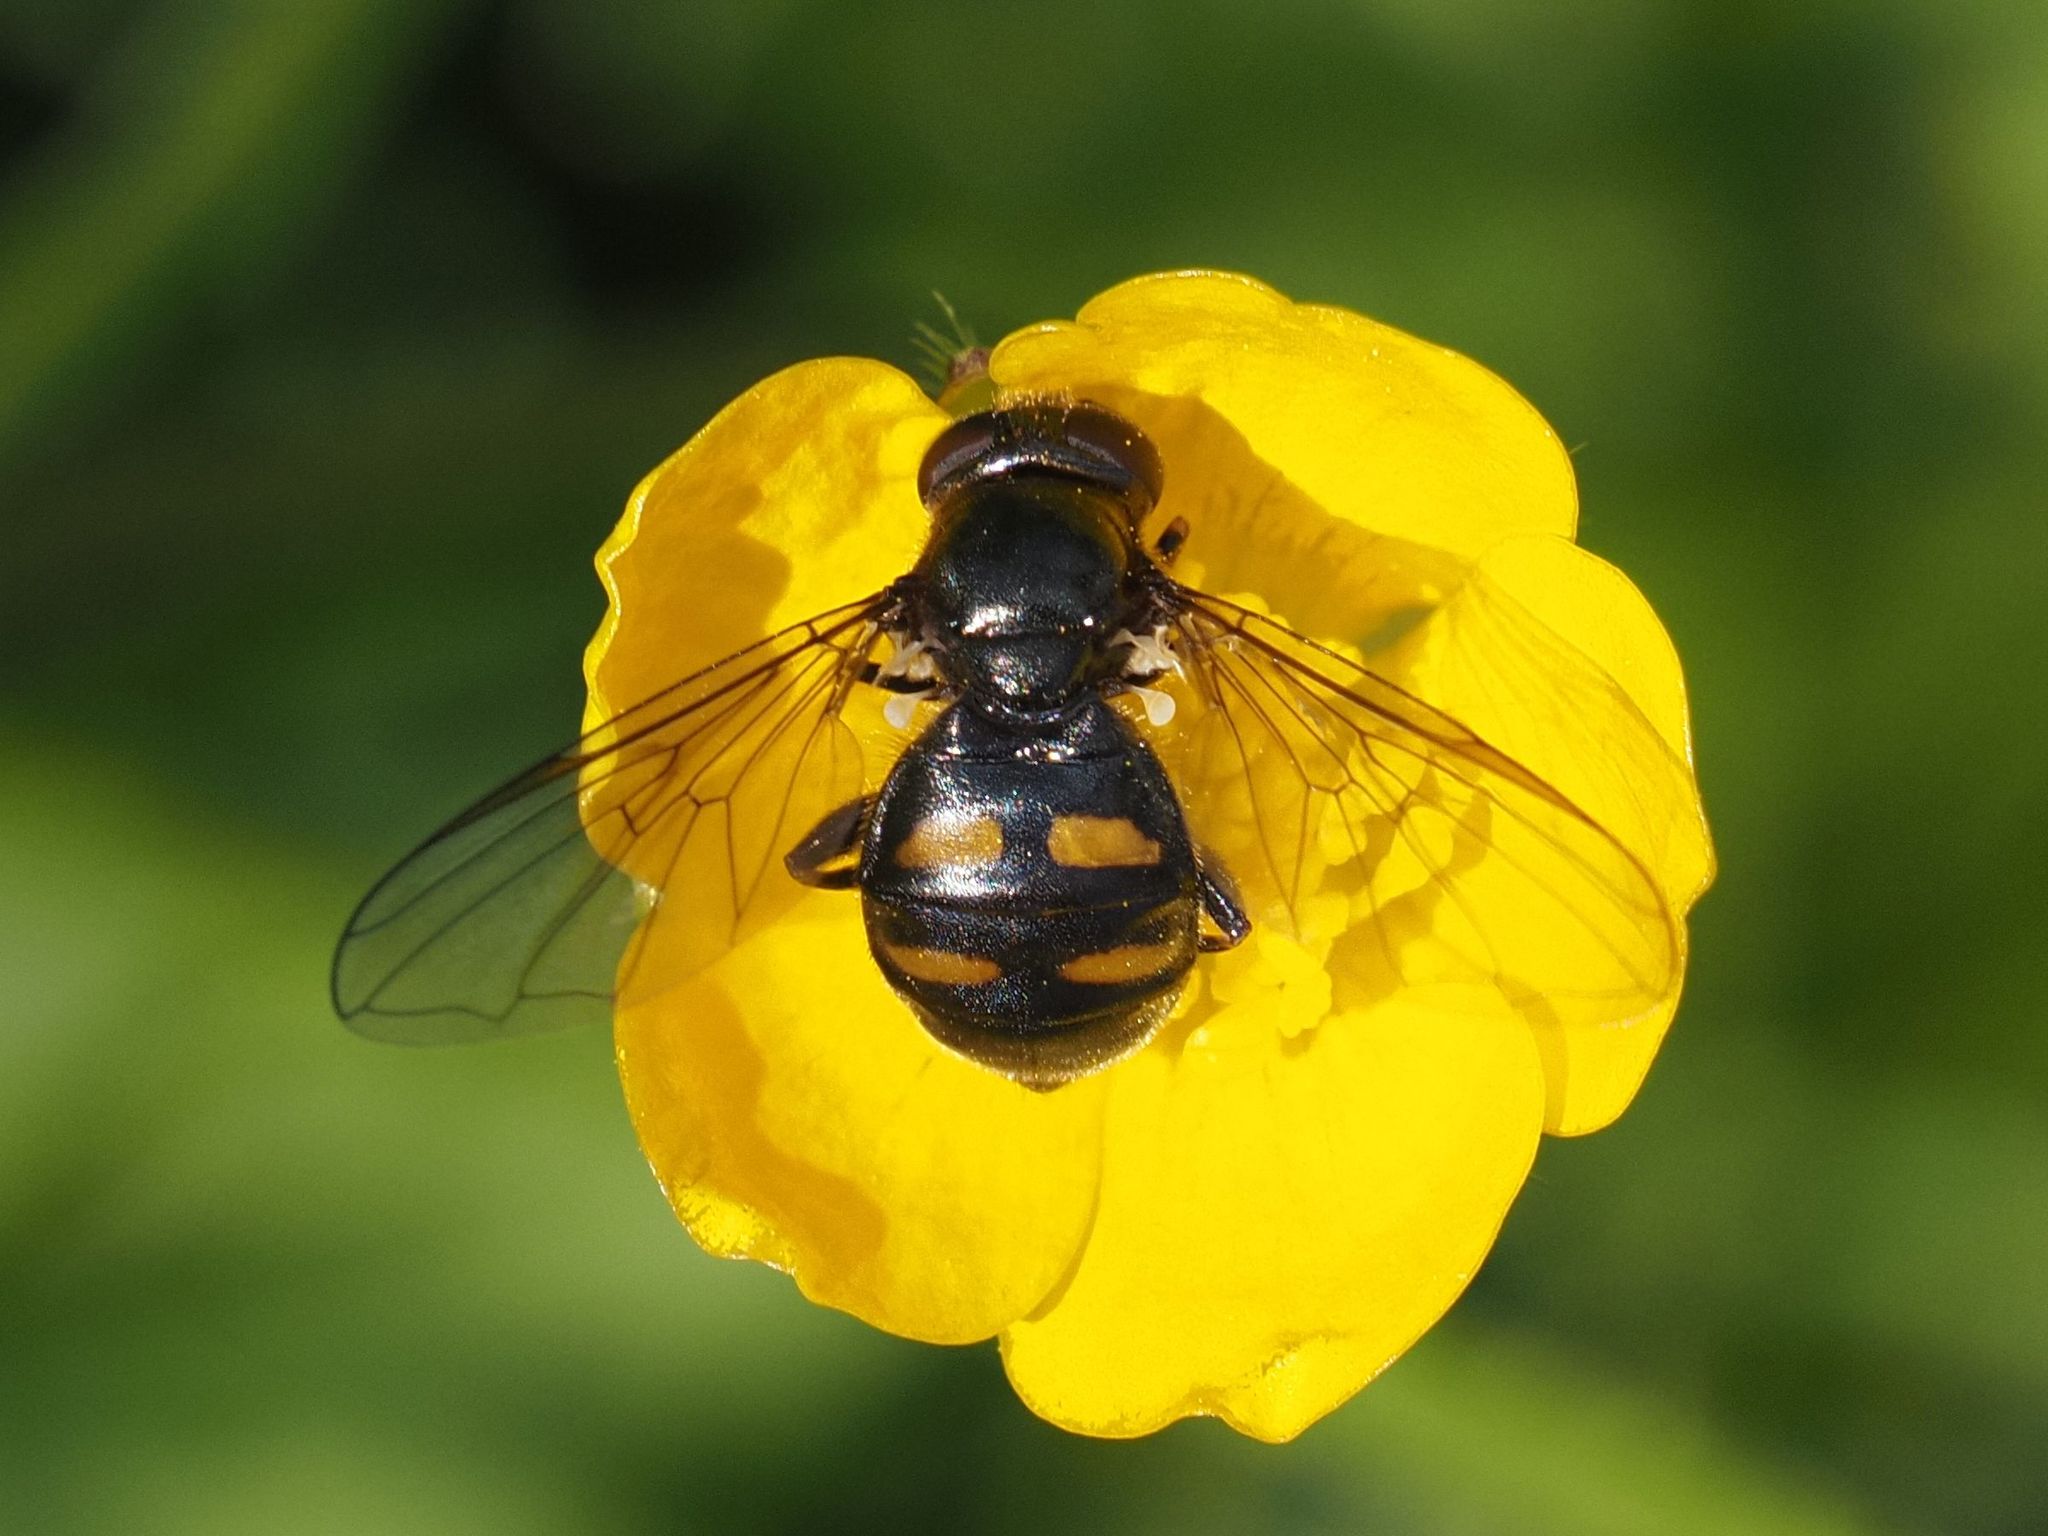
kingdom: Animalia
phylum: Arthropoda
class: Insecta
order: Diptera
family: Syrphidae
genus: Pipiza
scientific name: Pipiza quadrimaculata
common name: Four-spotted pipiza
